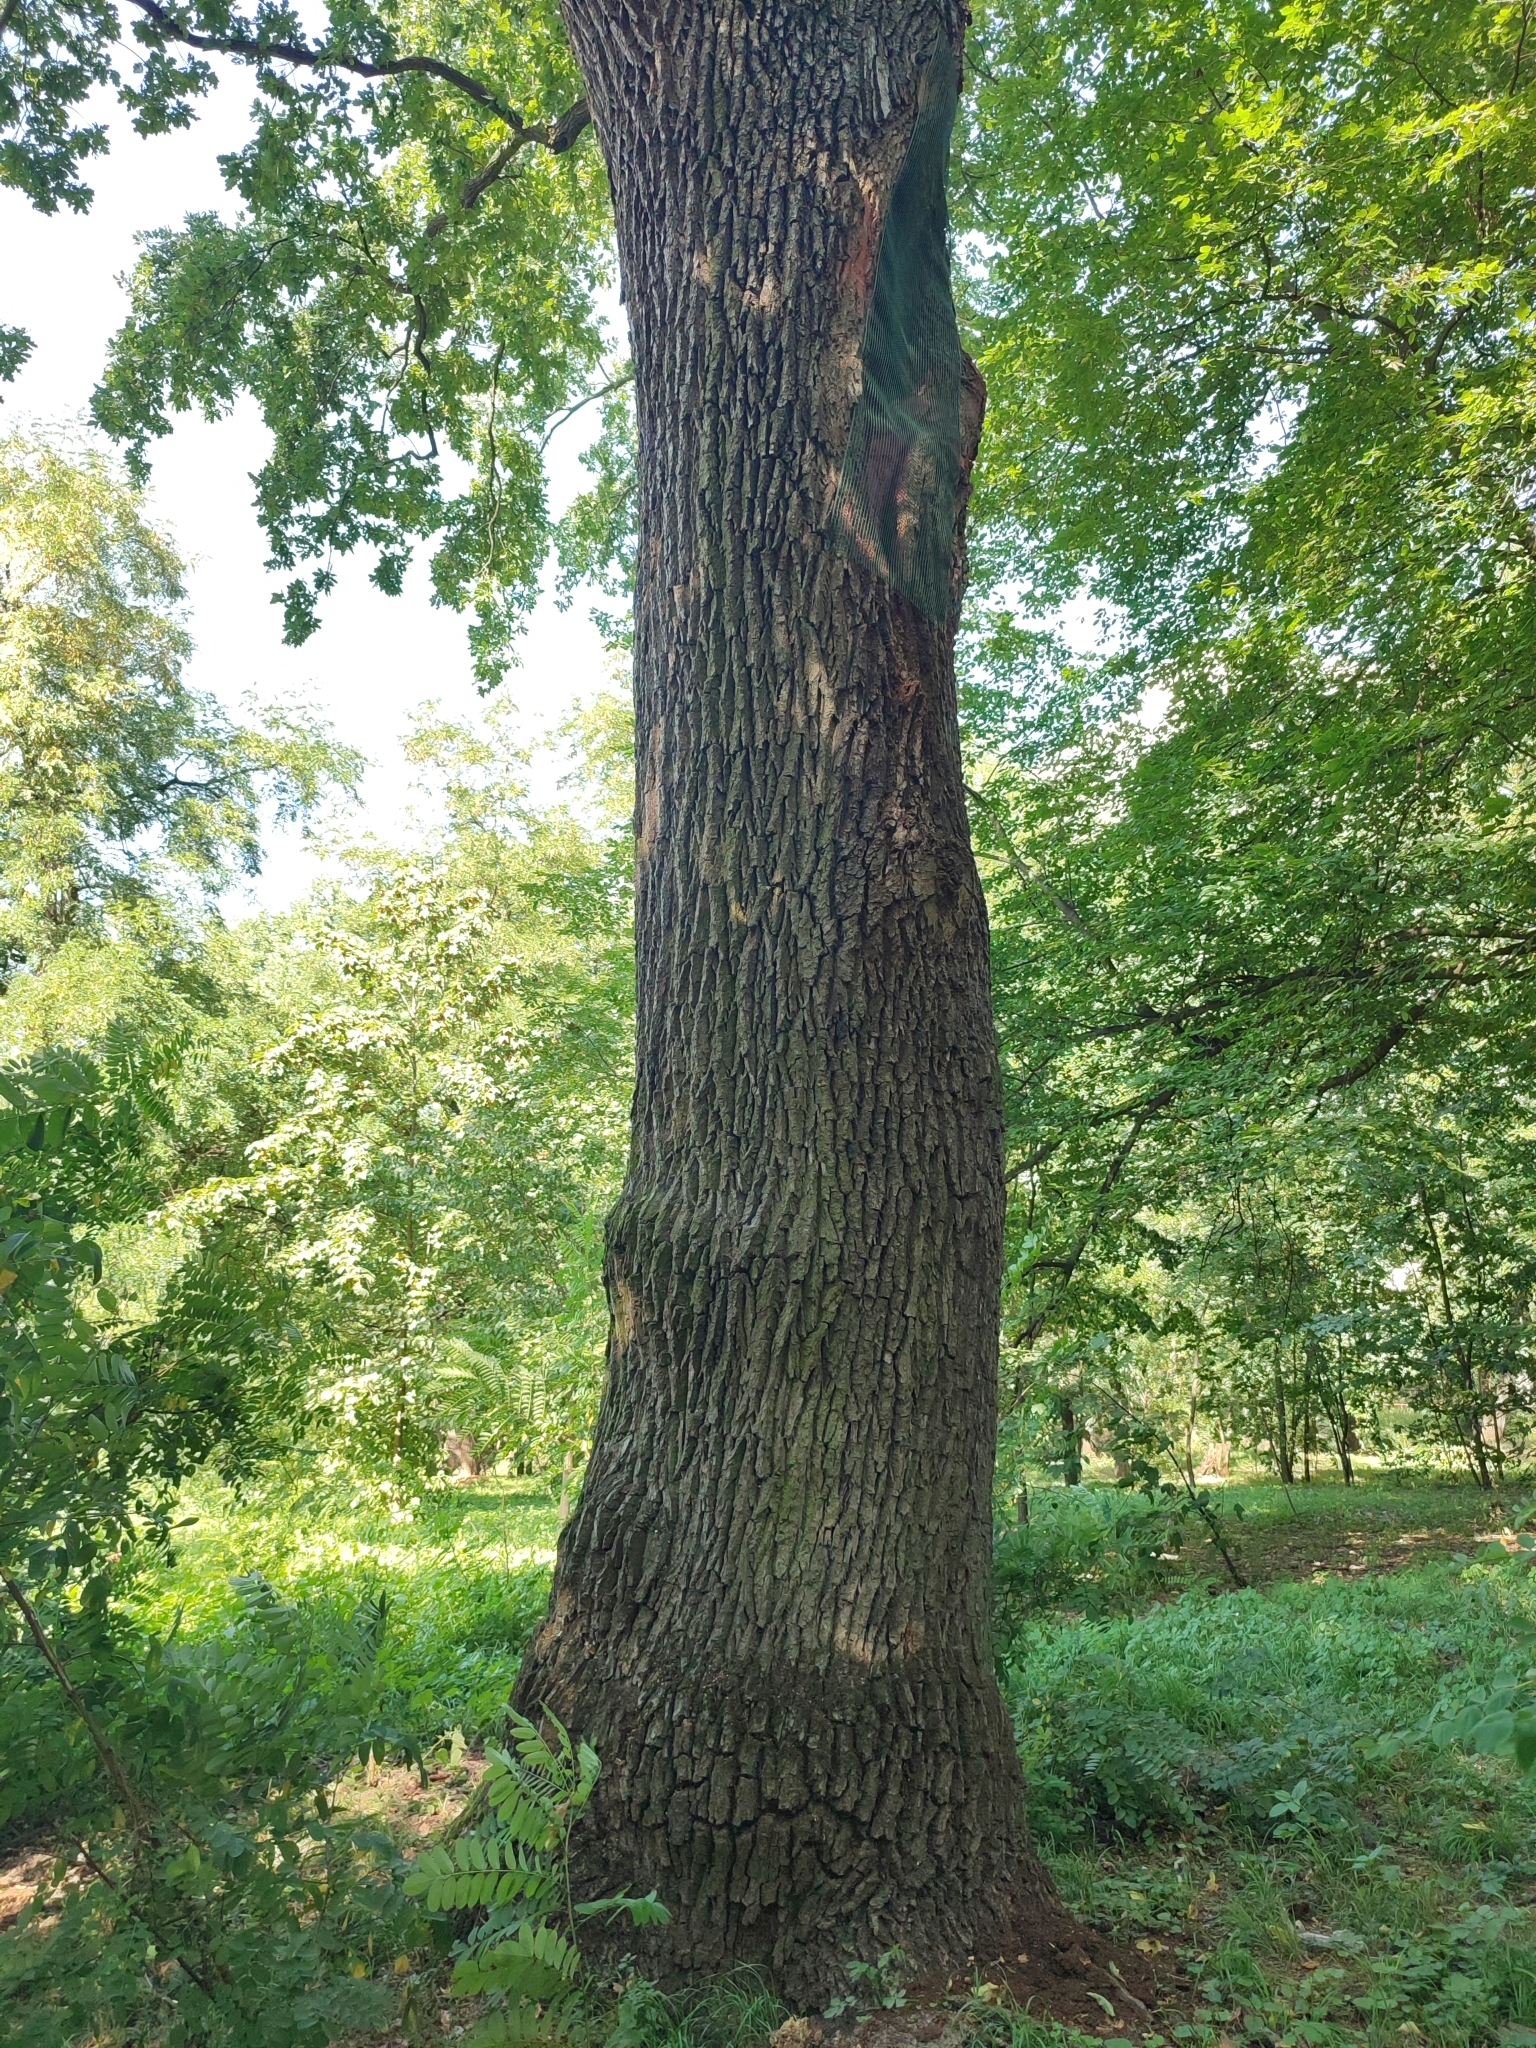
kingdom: Plantae
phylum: Tracheophyta
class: Magnoliopsida
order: Fagales
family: Fagaceae
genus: Quercus
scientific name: Quercus robur
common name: Pedunculate oak
